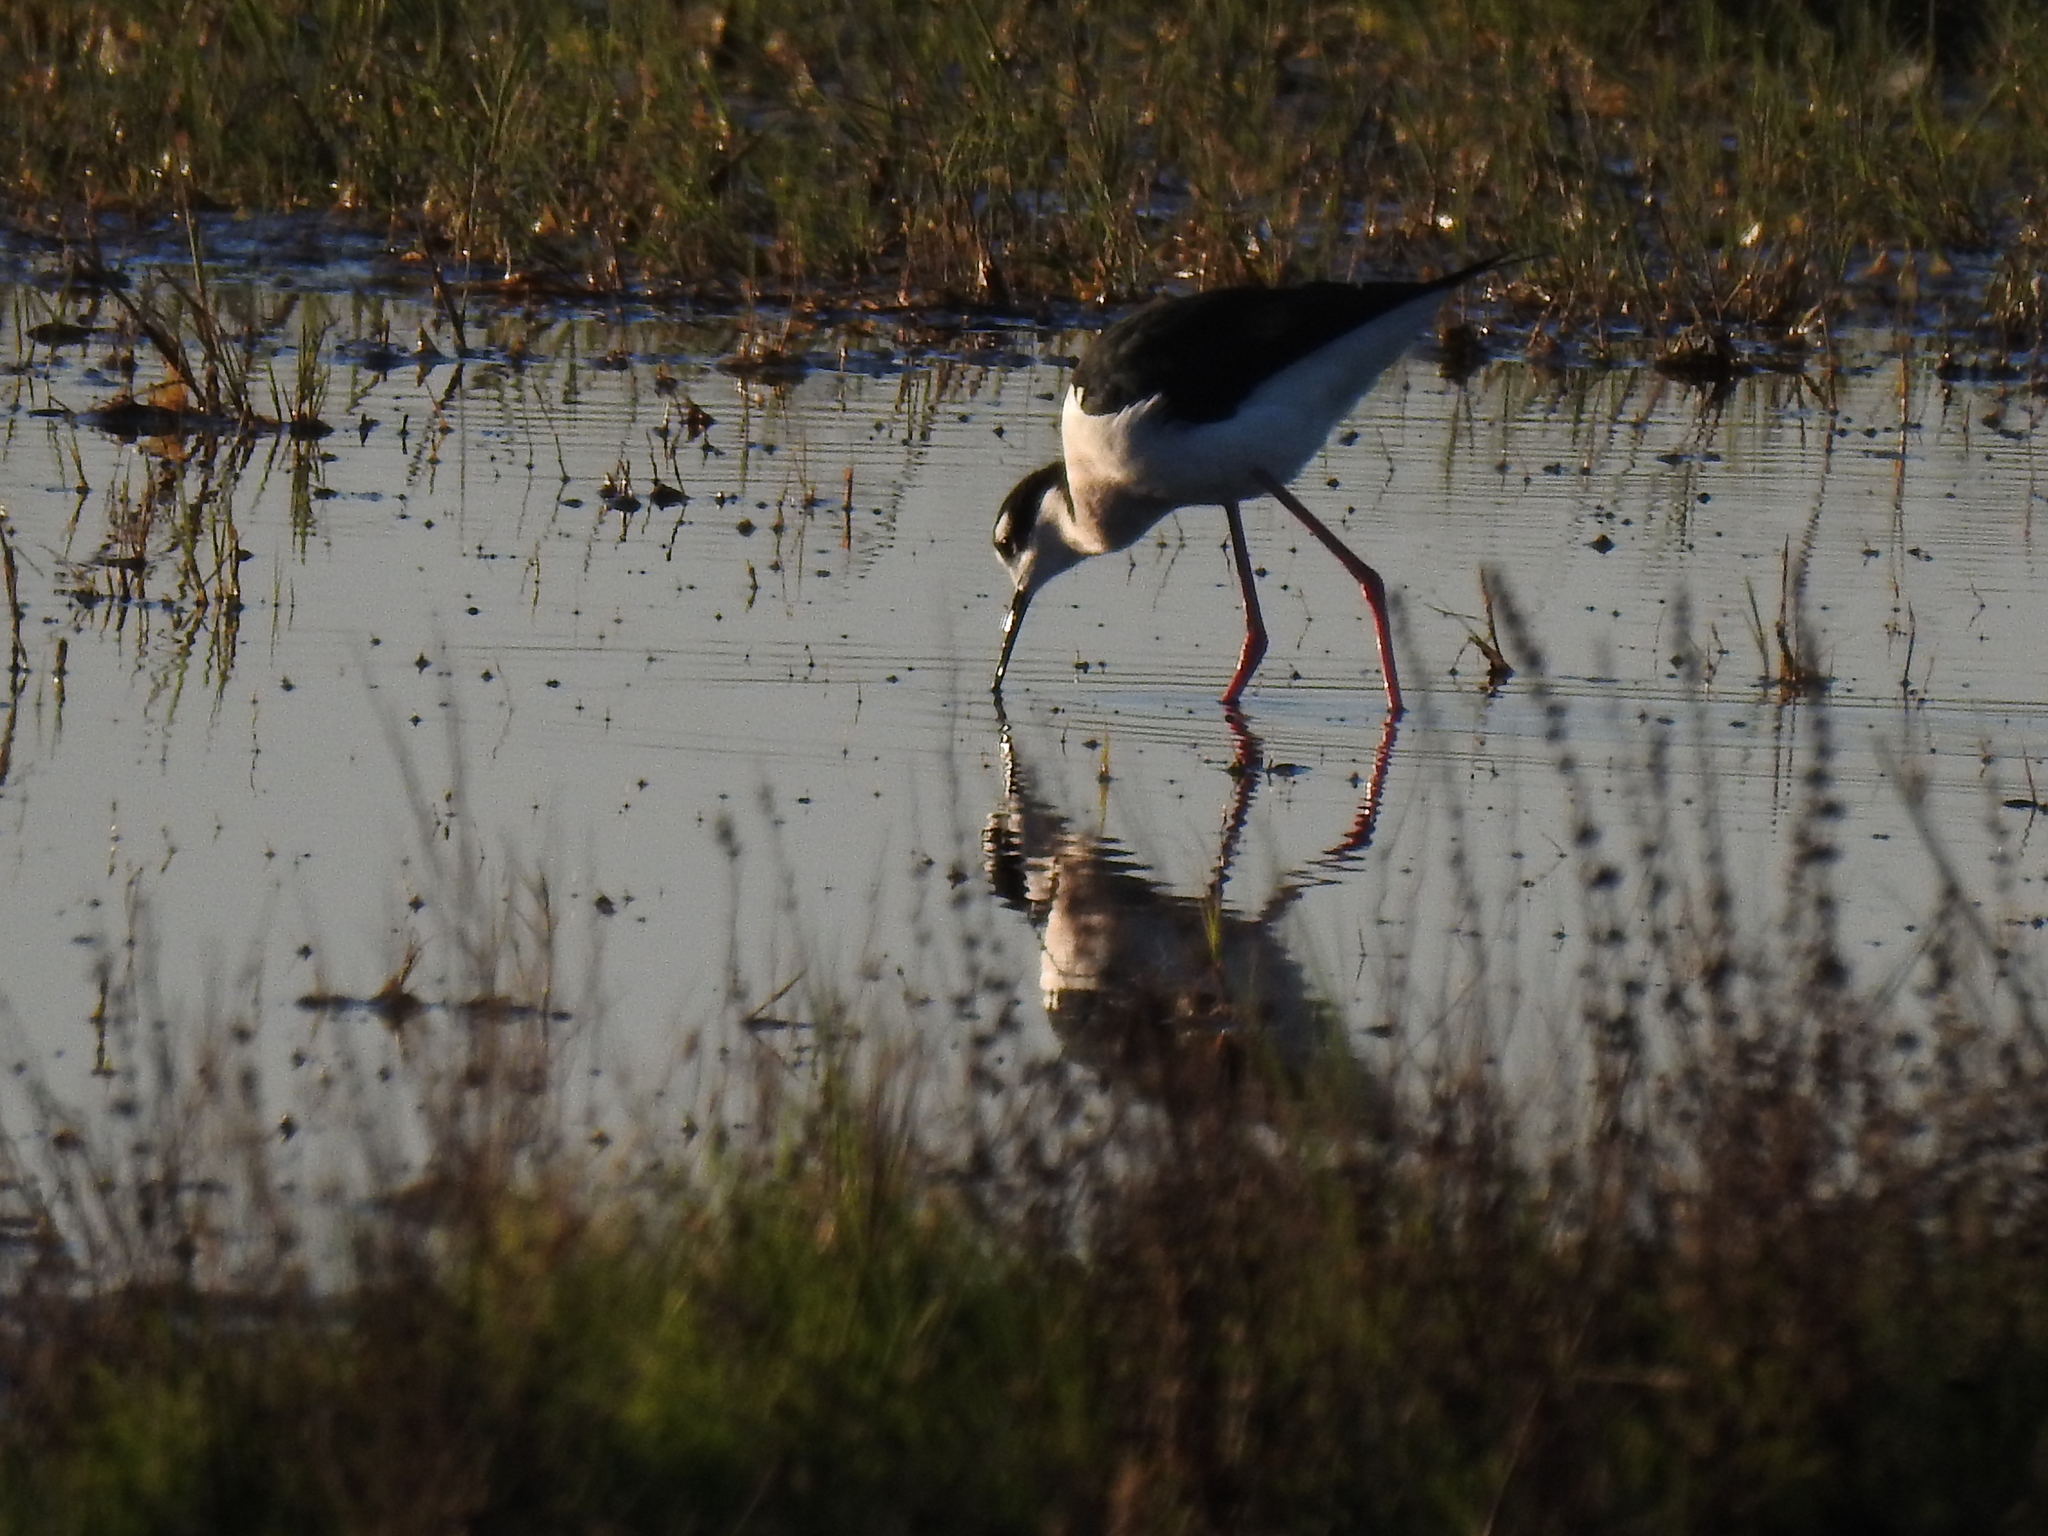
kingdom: Animalia
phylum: Chordata
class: Aves
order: Charadriiformes
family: Recurvirostridae
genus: Himantopus
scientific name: Himantopus mexicanus
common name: Black-necked stilt
